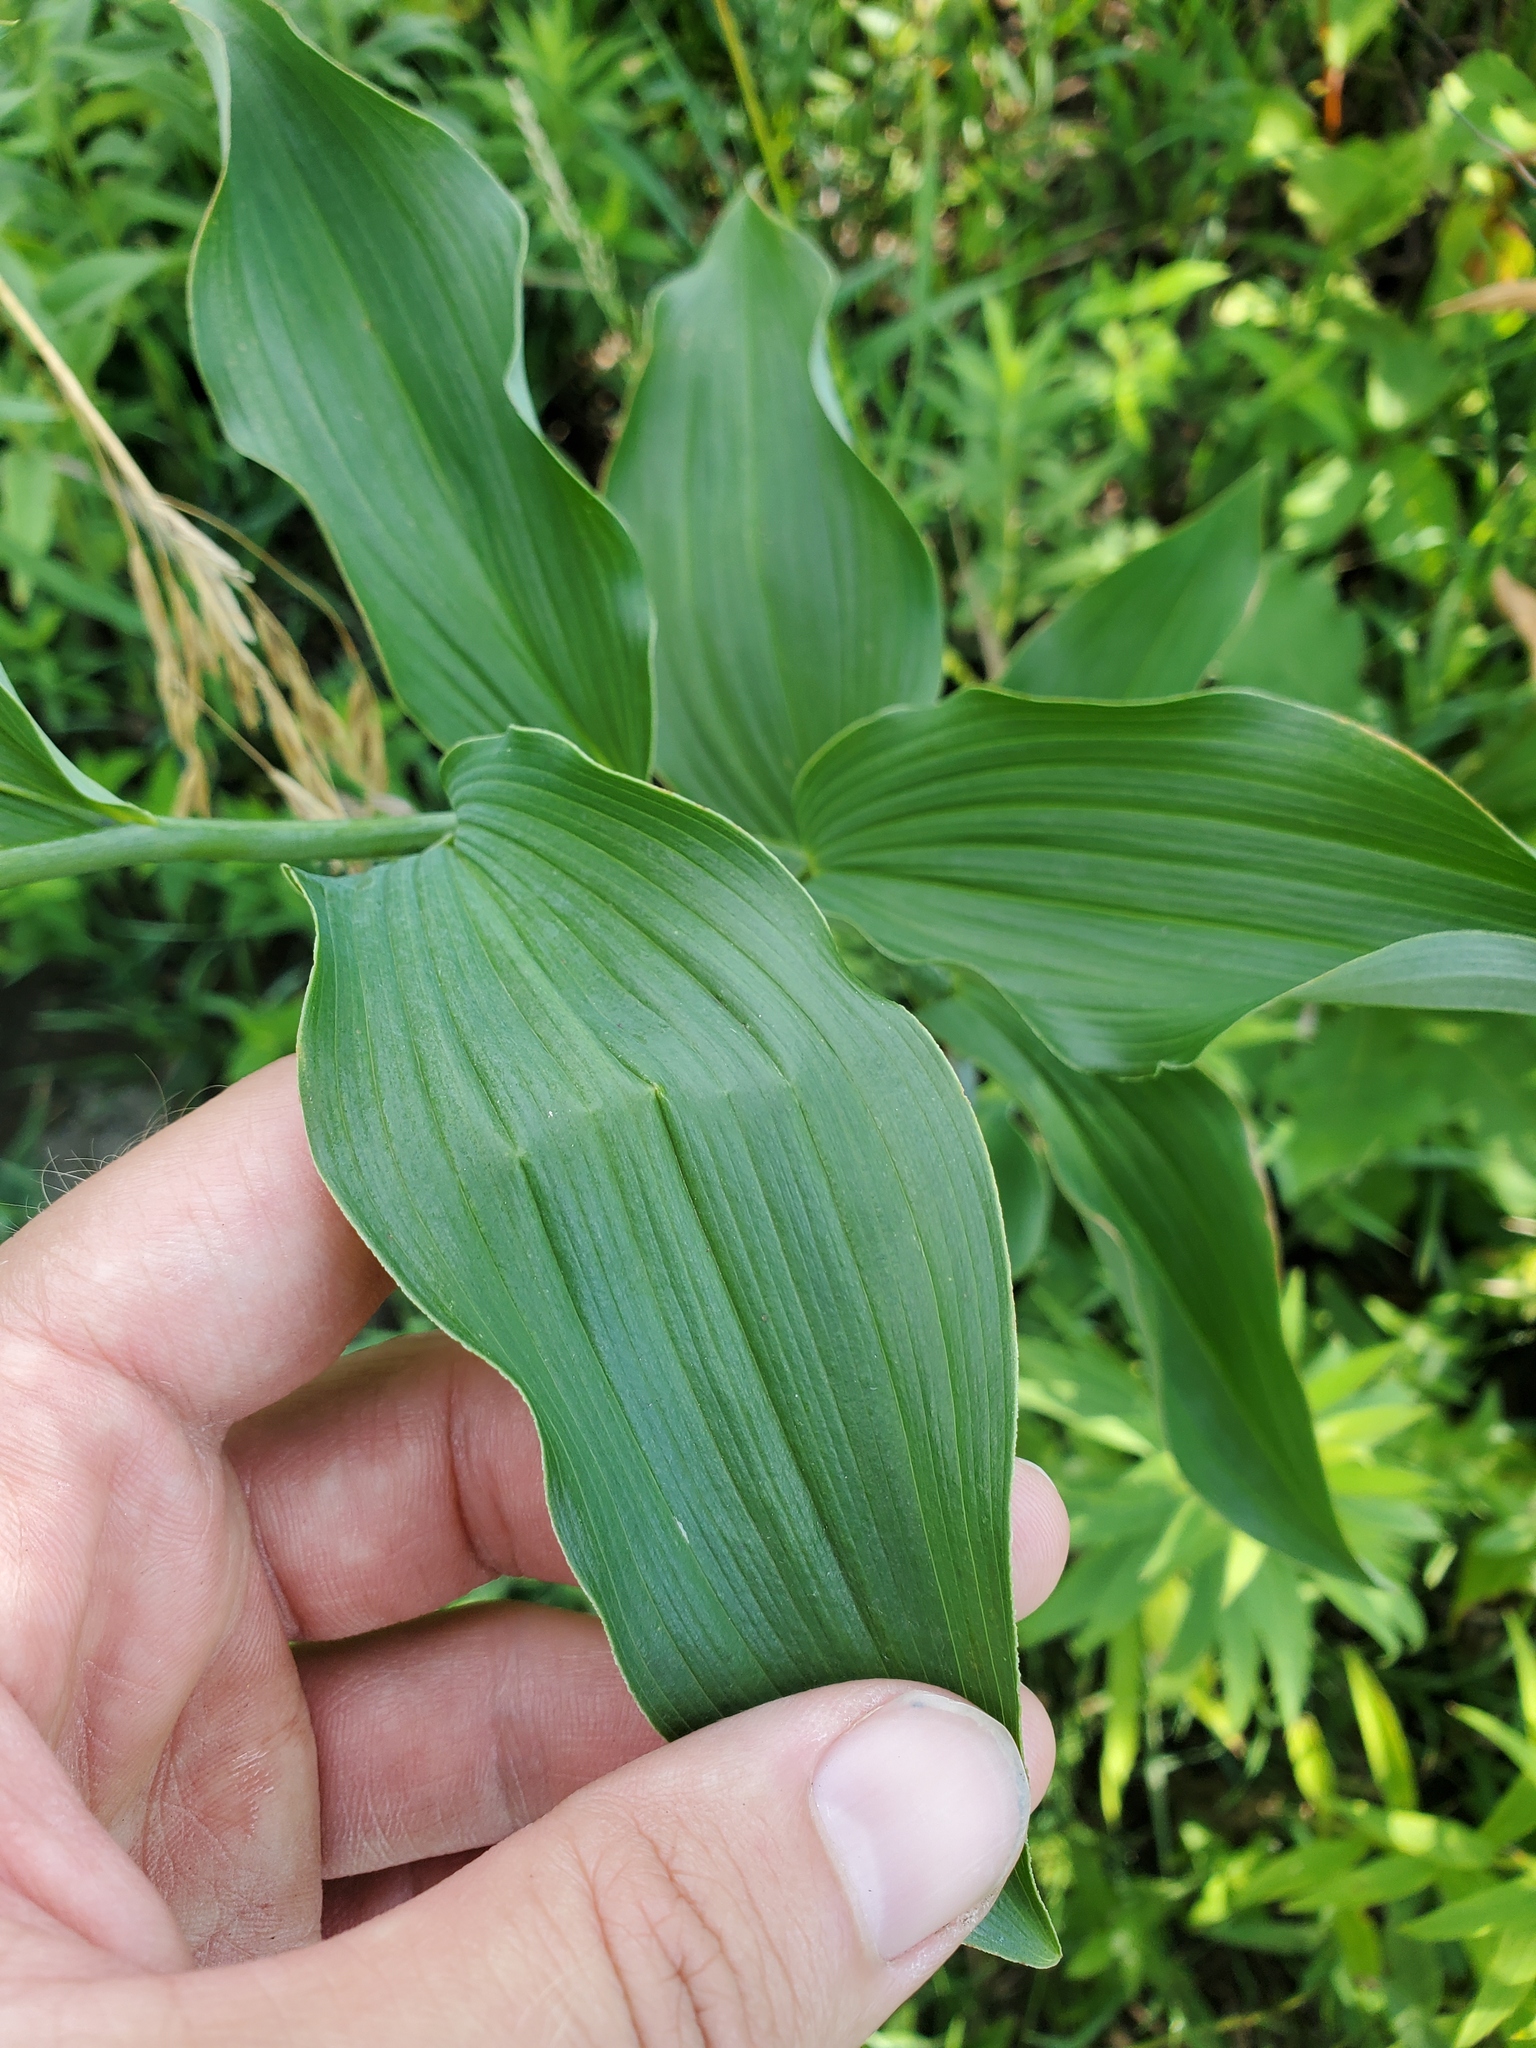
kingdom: Plantae
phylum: Tracheophyta
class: Liliopsida
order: Asparagales
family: Asparagaceae
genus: Polygonatum
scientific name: Polygonatum biflorum
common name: American solomon's-seal
